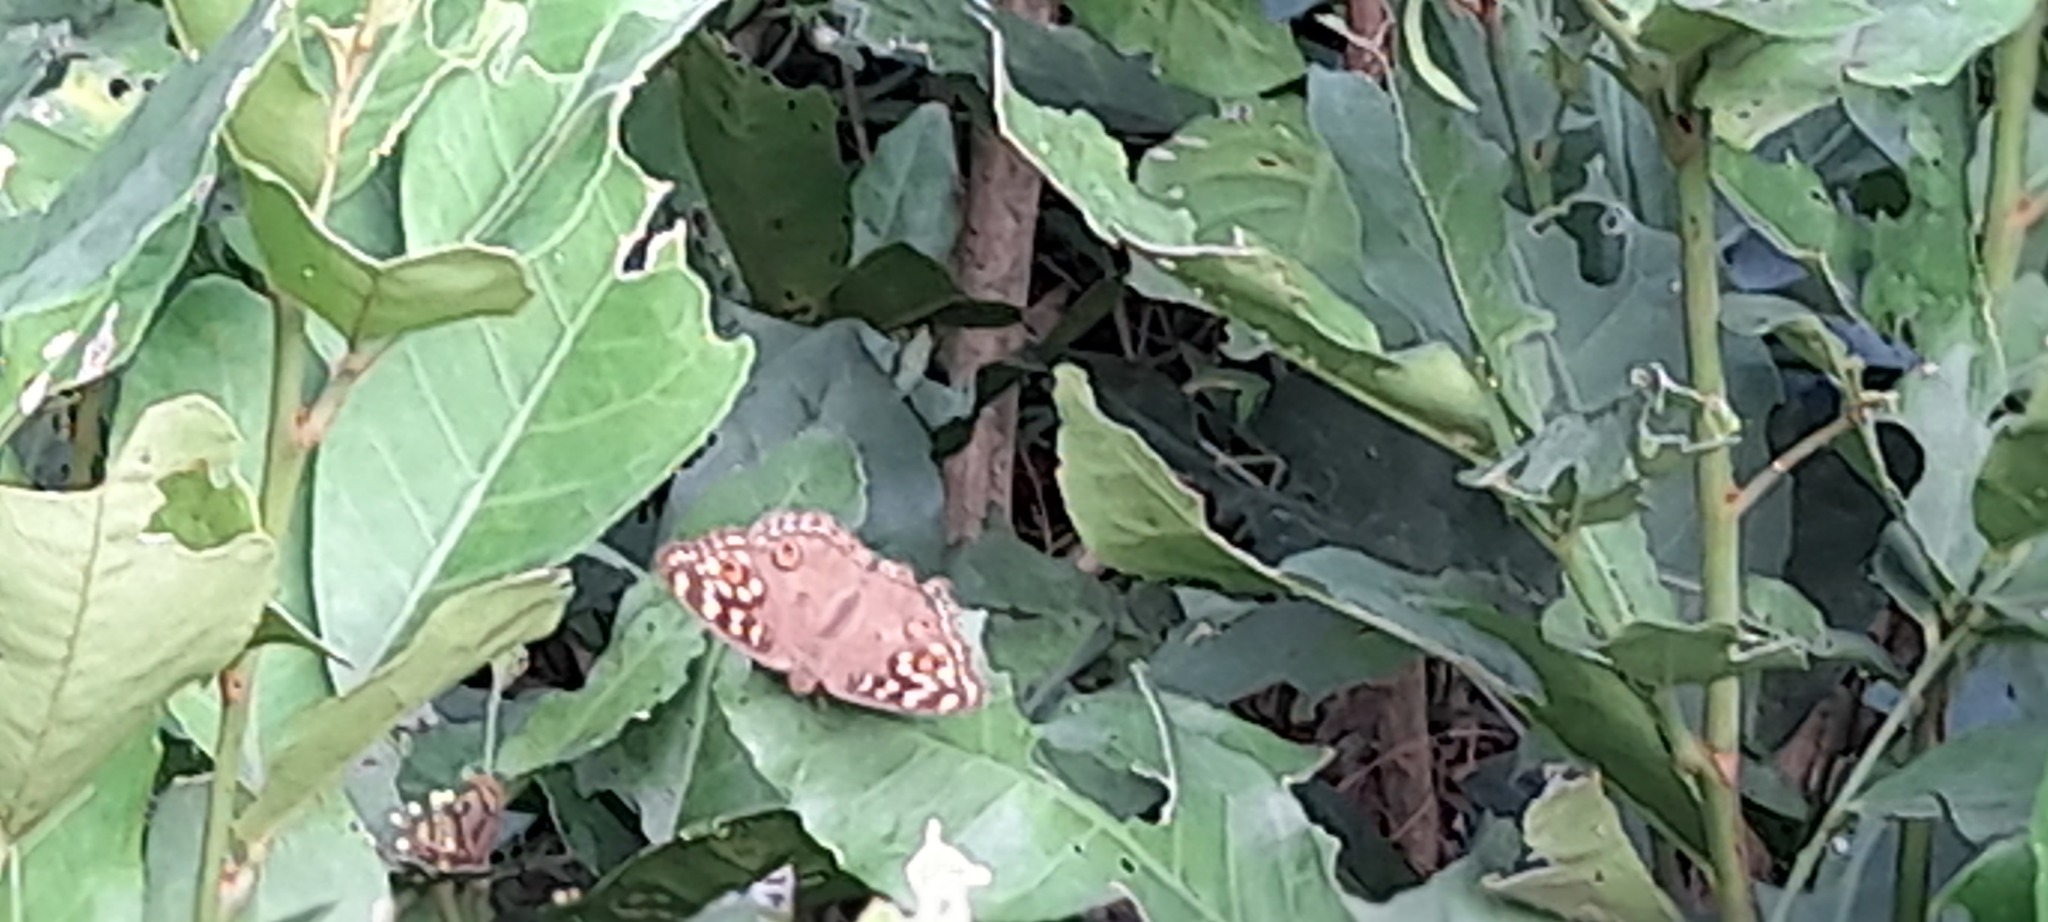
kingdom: Animalia
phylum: Arthropoda
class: Insecta
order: Lepidoptera
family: Nymphalidae
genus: Junonia
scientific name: Junonia lemonias
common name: Lemon pansy
